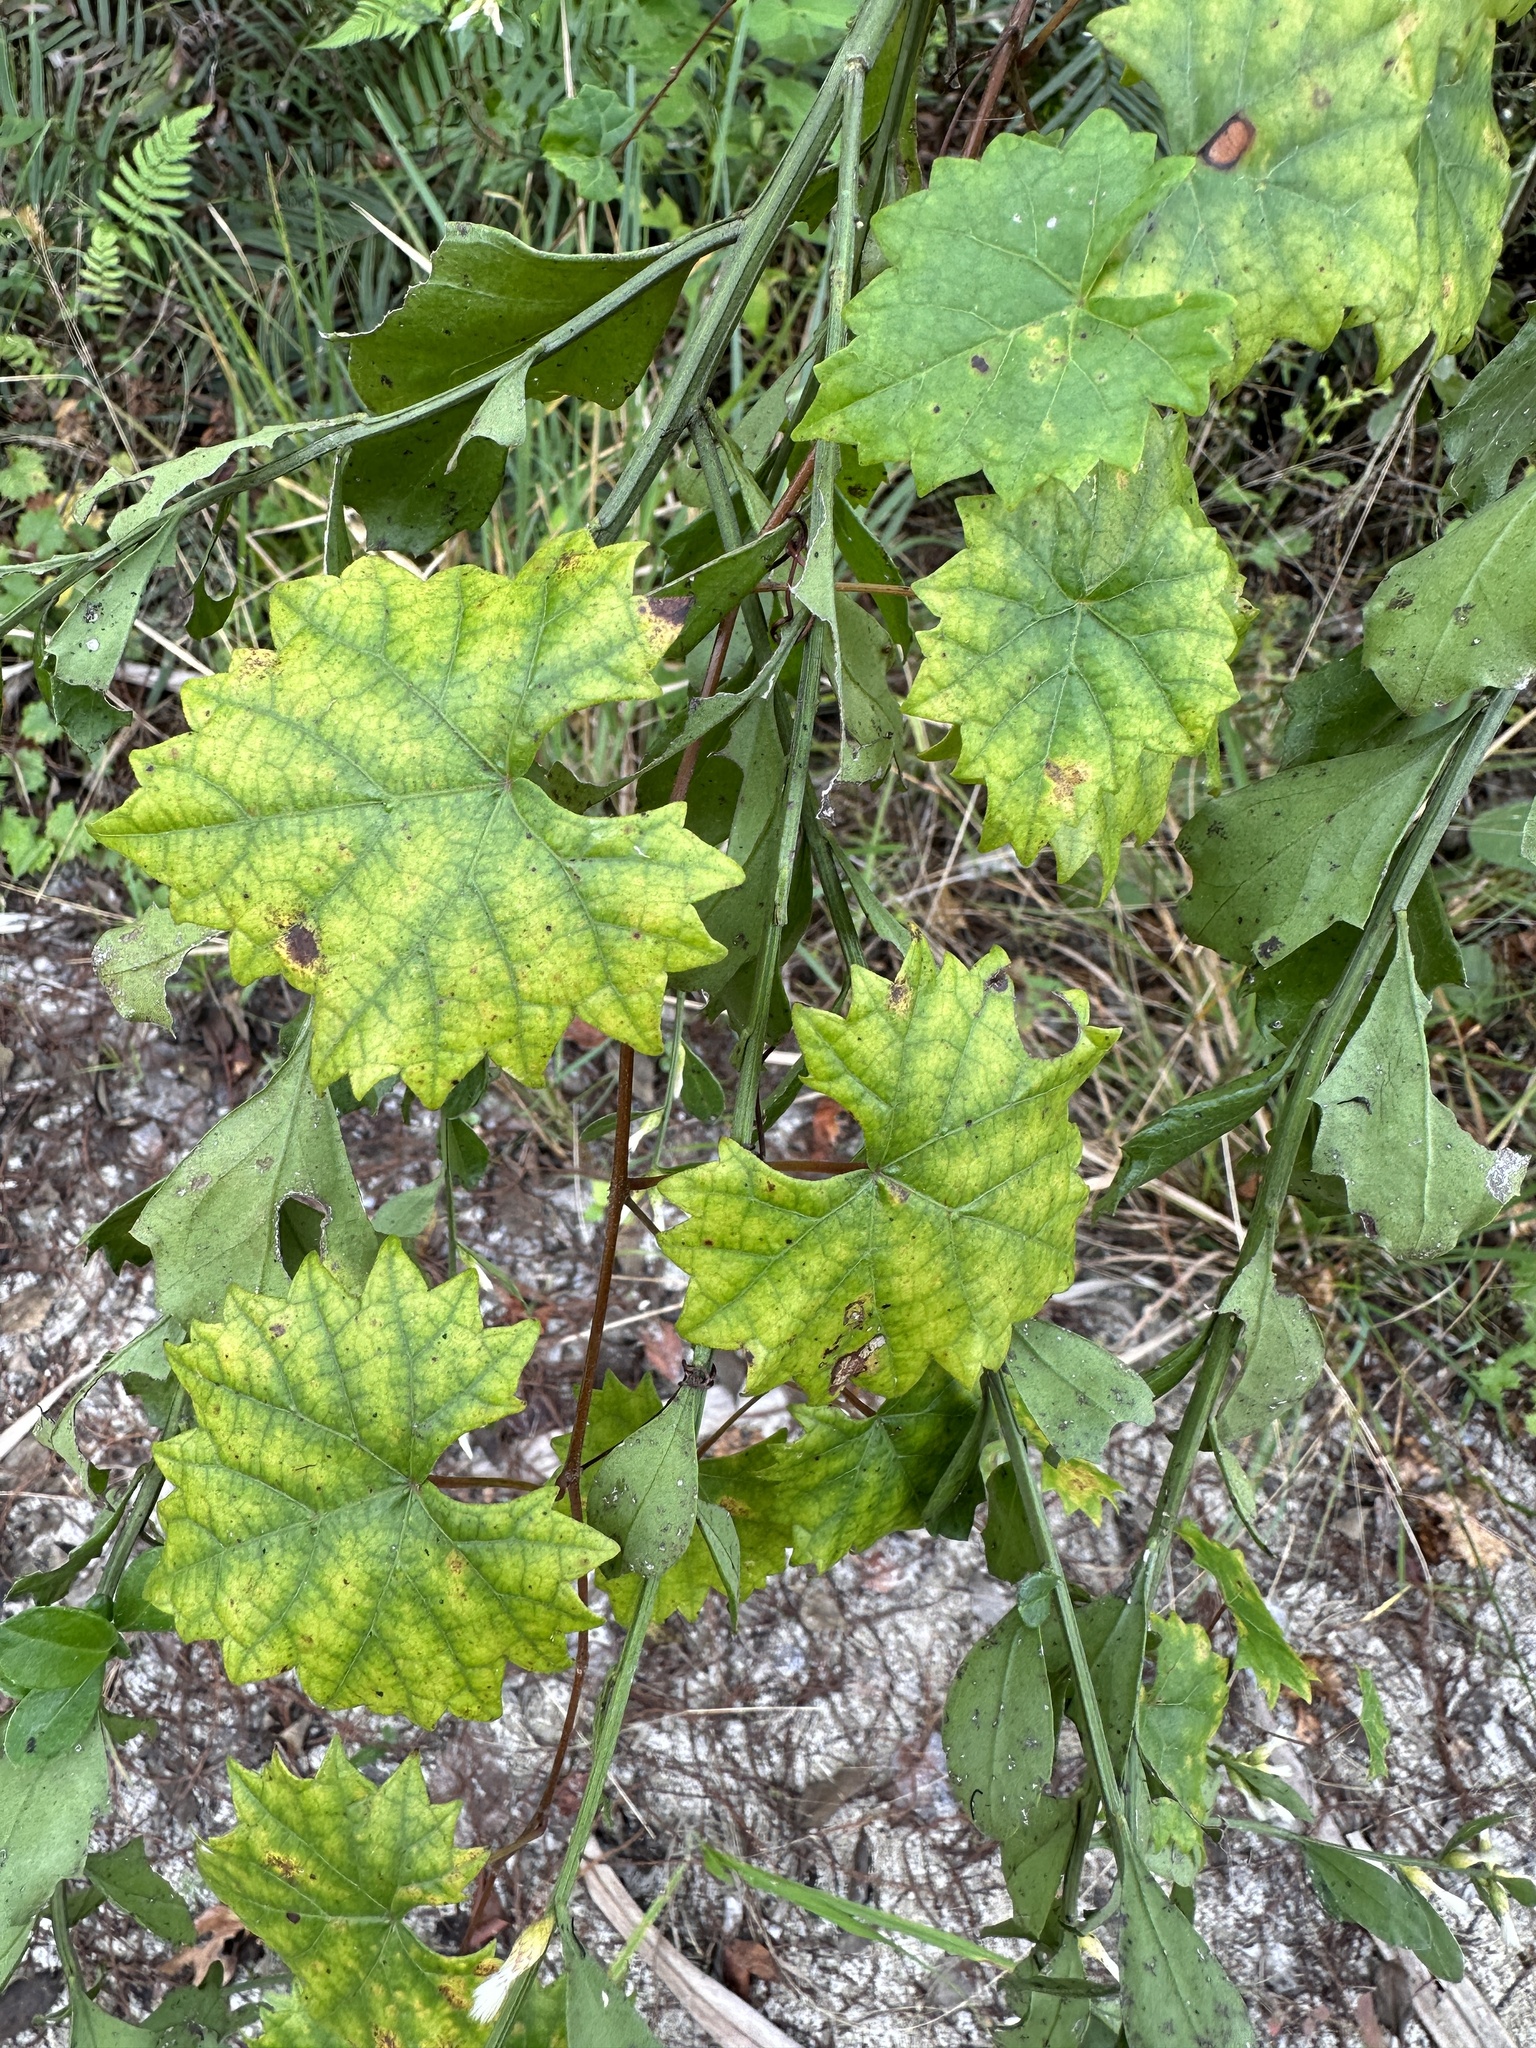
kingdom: Plantae
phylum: Tracheophyta
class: Magnoliopsida
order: Vitales
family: Vitaceae
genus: Vitis
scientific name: Vitis rotundifolia
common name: Muscadine grape
